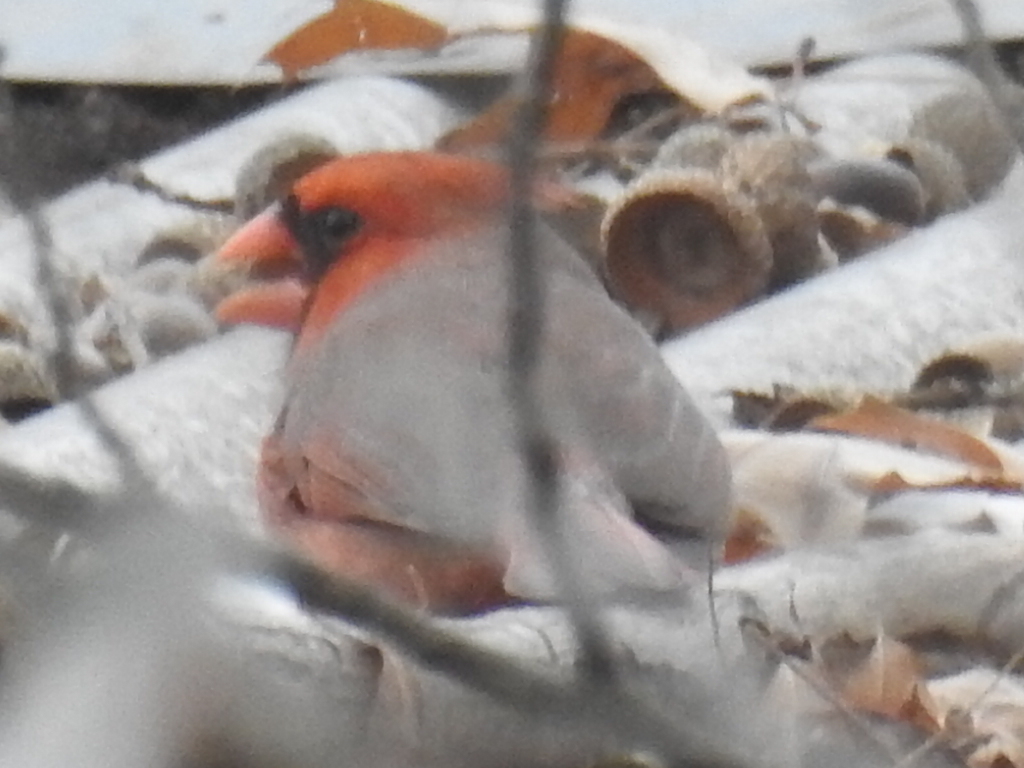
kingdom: Animalia
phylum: Chordata
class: Aves
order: Passeriformes
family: Cardinalidae
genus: Cardinalis
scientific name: Cardinalis cardinalis
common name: Northern cardinal
